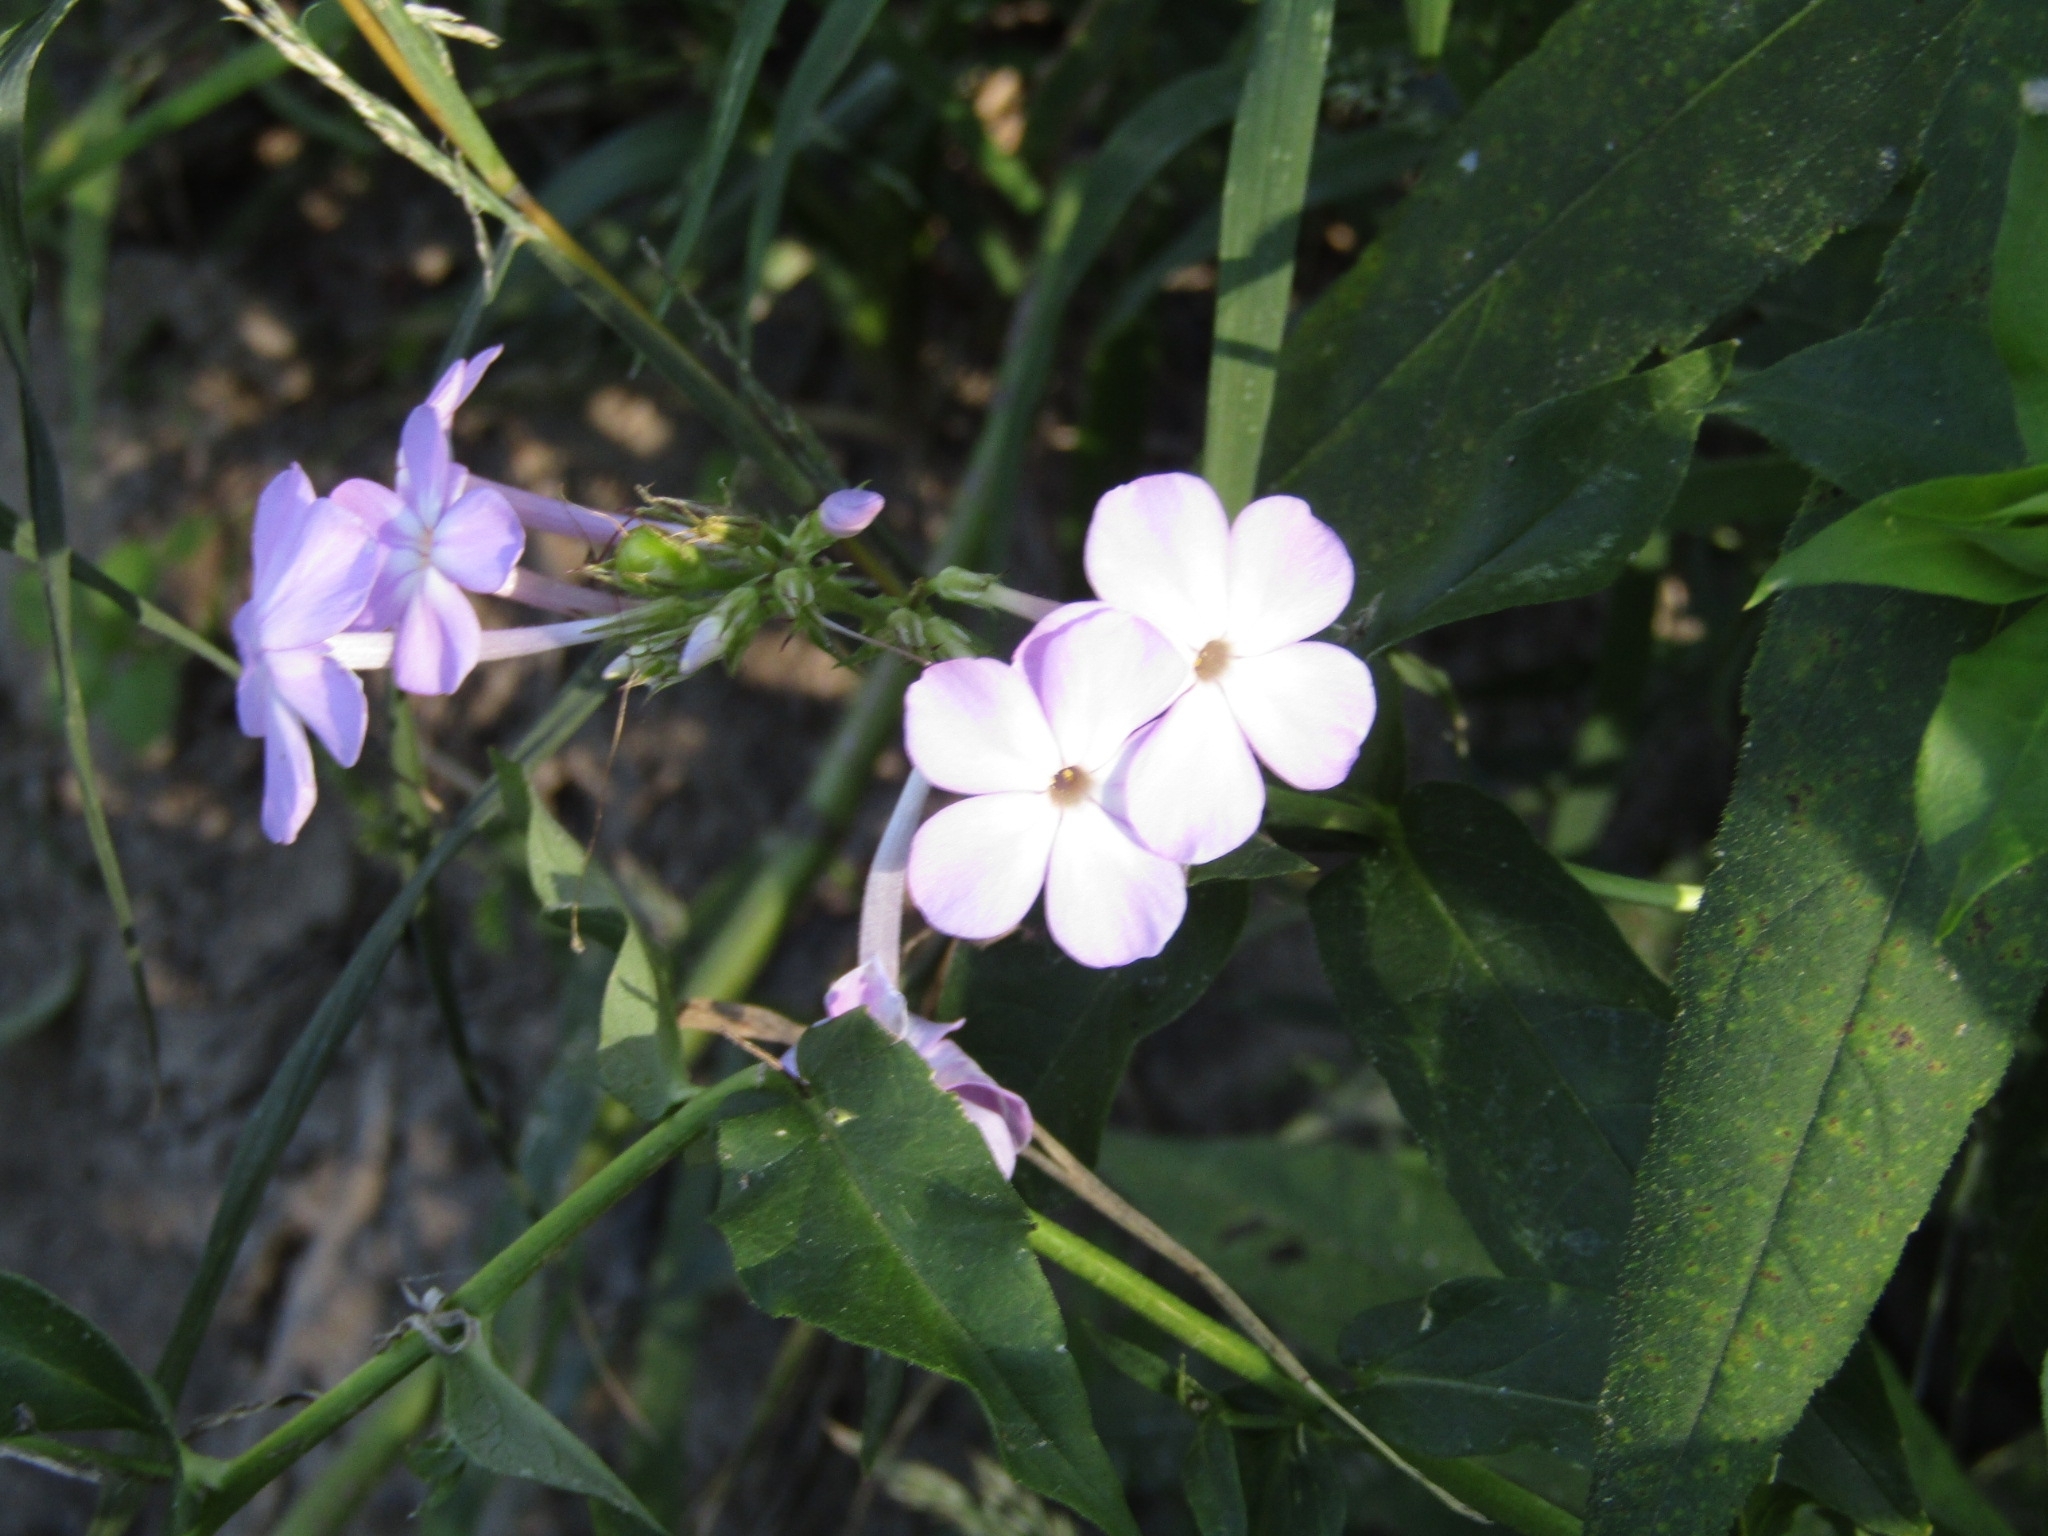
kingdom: Plantae
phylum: Tracheophyta
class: Magnoliopsida
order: Ericales
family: Polemoniaceae
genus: Phlox
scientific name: Phlox paniculata
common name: Fall phlox
